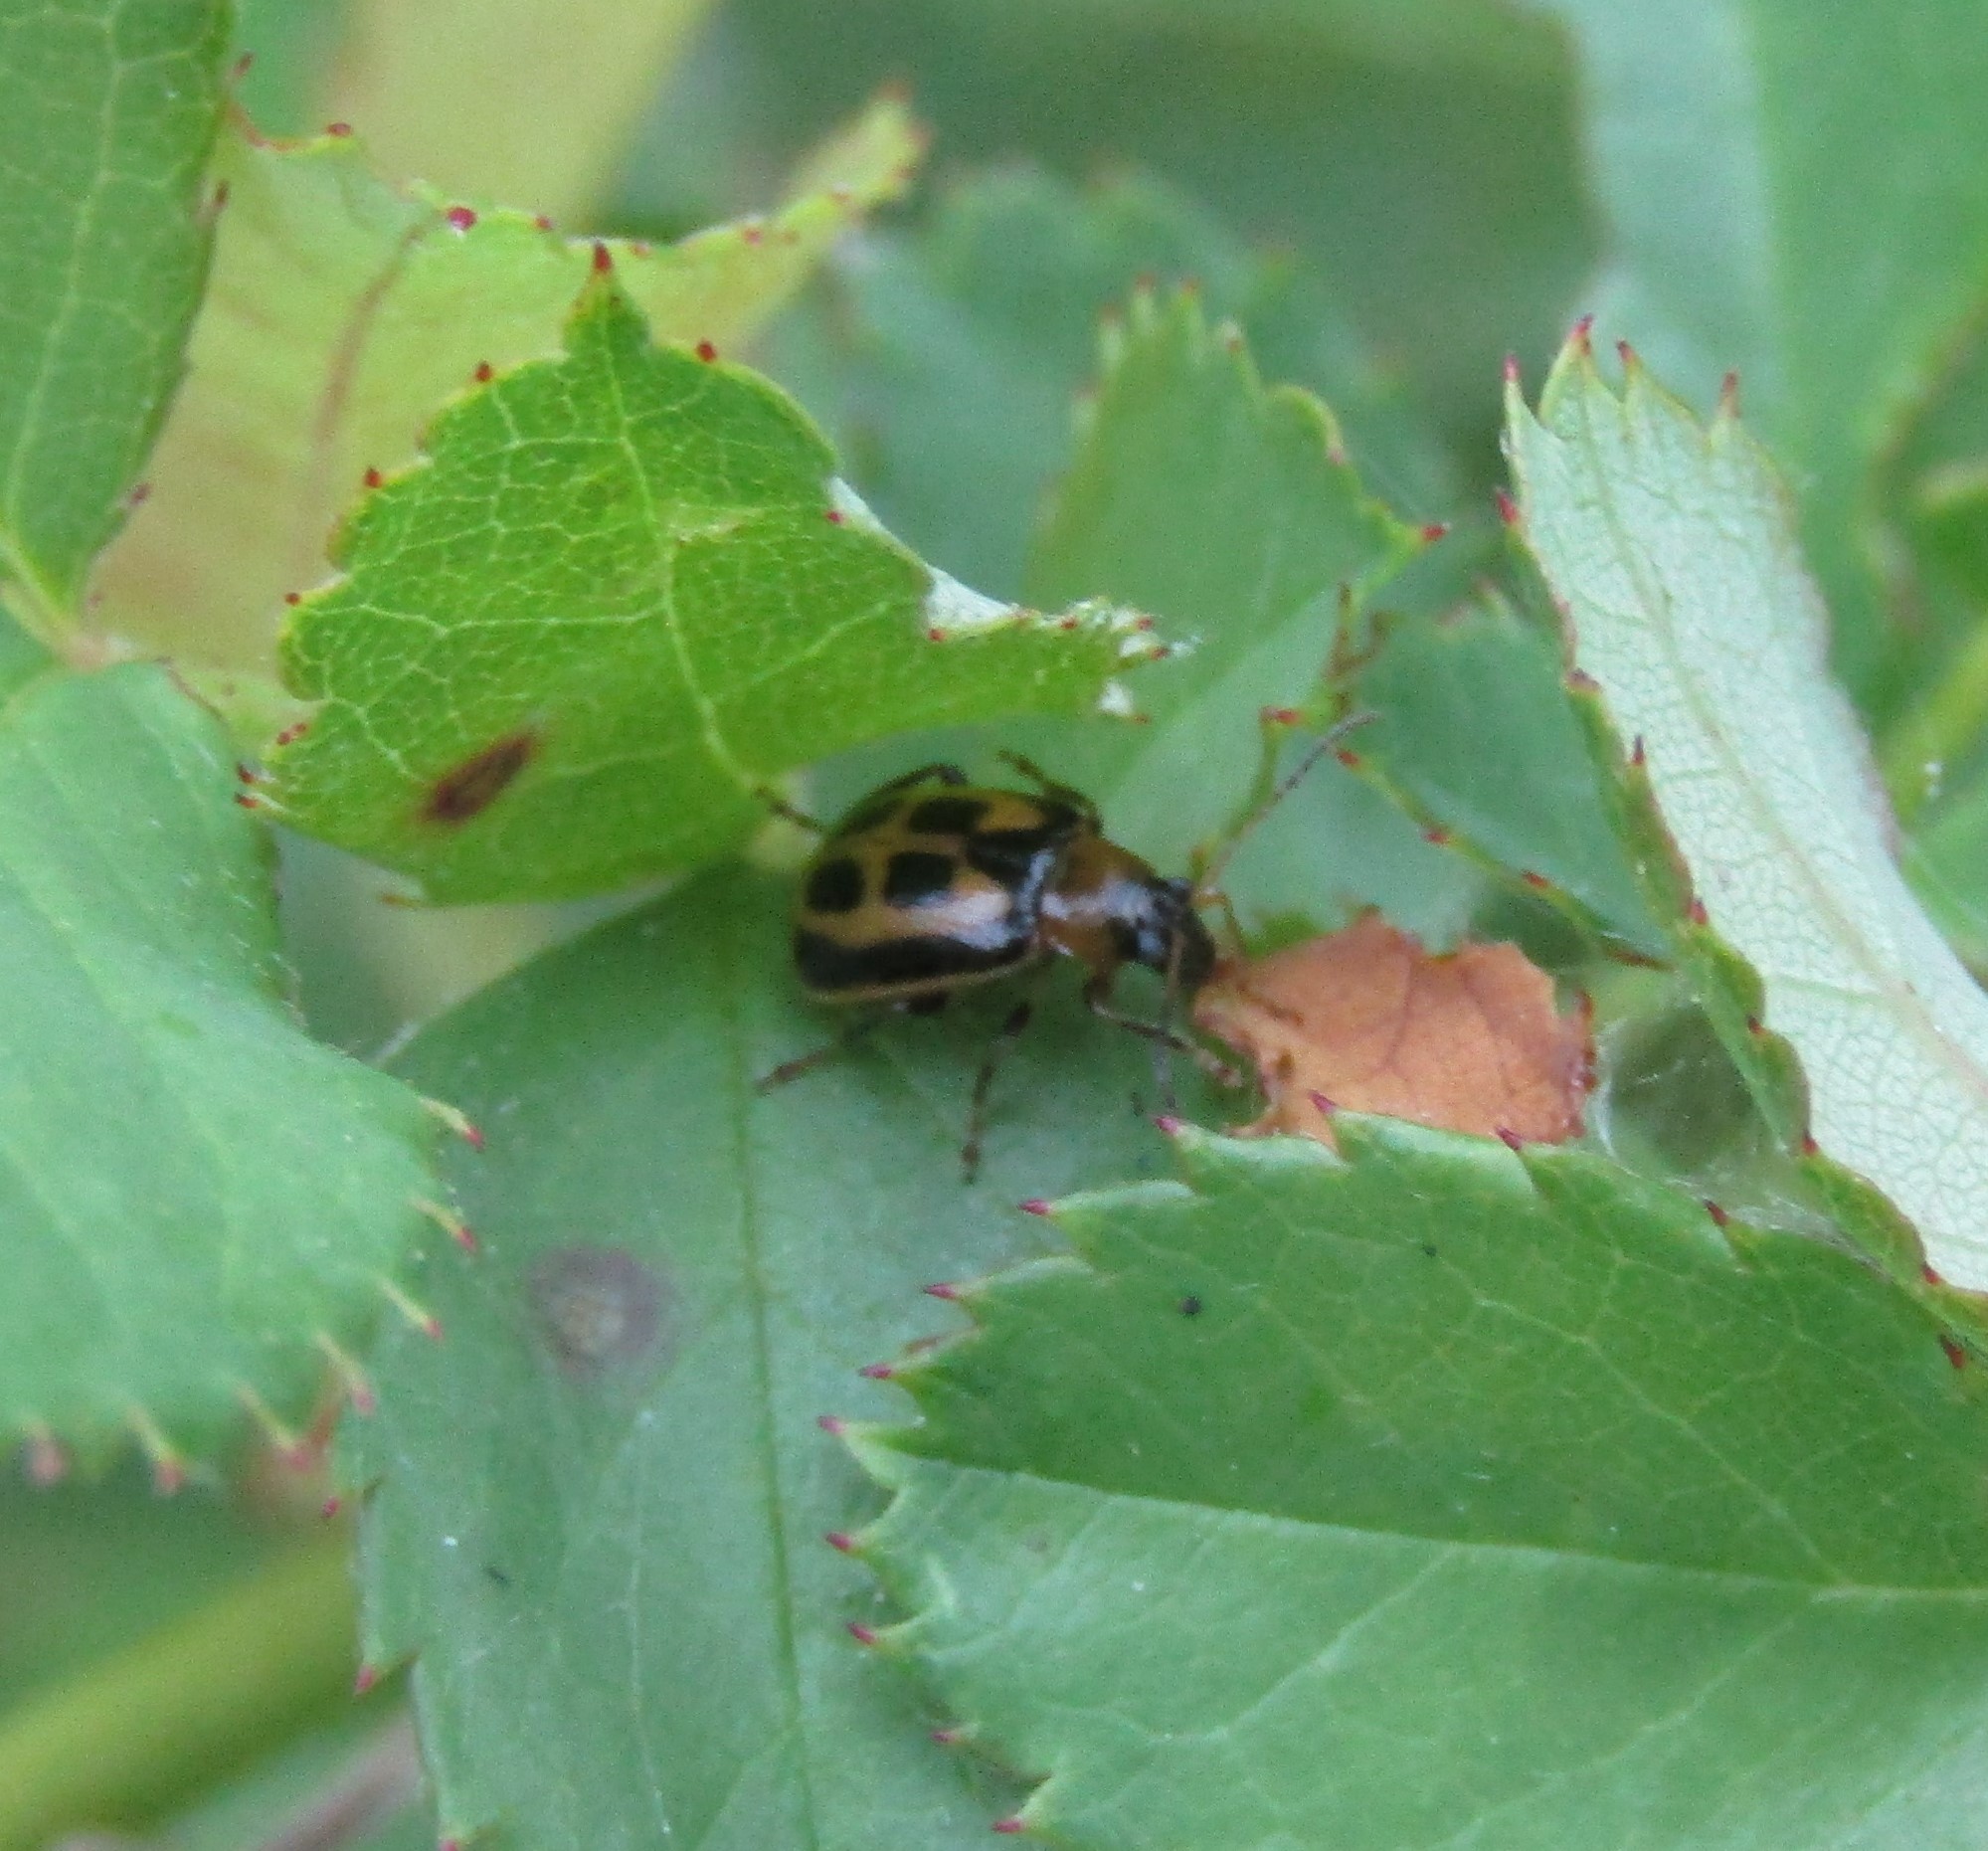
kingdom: Animalia
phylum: Arthropoda
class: Insecta
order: Coleoptera
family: Chrysomelidae
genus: Cerotoma
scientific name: Cerotoma trifurcata
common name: Bean leaf beetle
